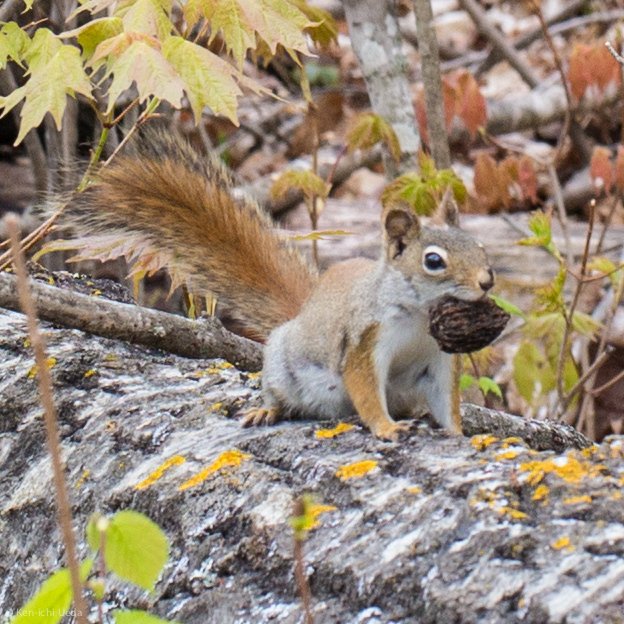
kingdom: Animalia
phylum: Chordata
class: Mammalia
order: Rodentia
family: Sciuridae
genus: Tamiasciurus
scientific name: Tamiasciurus hudsonicus
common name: Red squirrel
